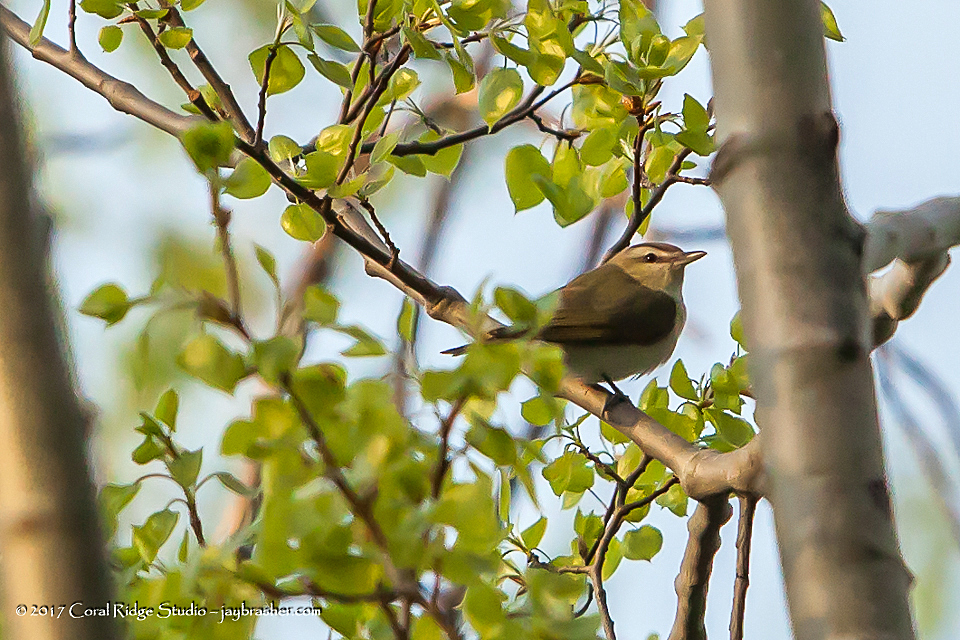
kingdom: Animalia
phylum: Chordata
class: Aves
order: Passeriformes
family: Vireonidae
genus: Vireo
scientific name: Vireo olivaceus
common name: Red-eyed vireo
